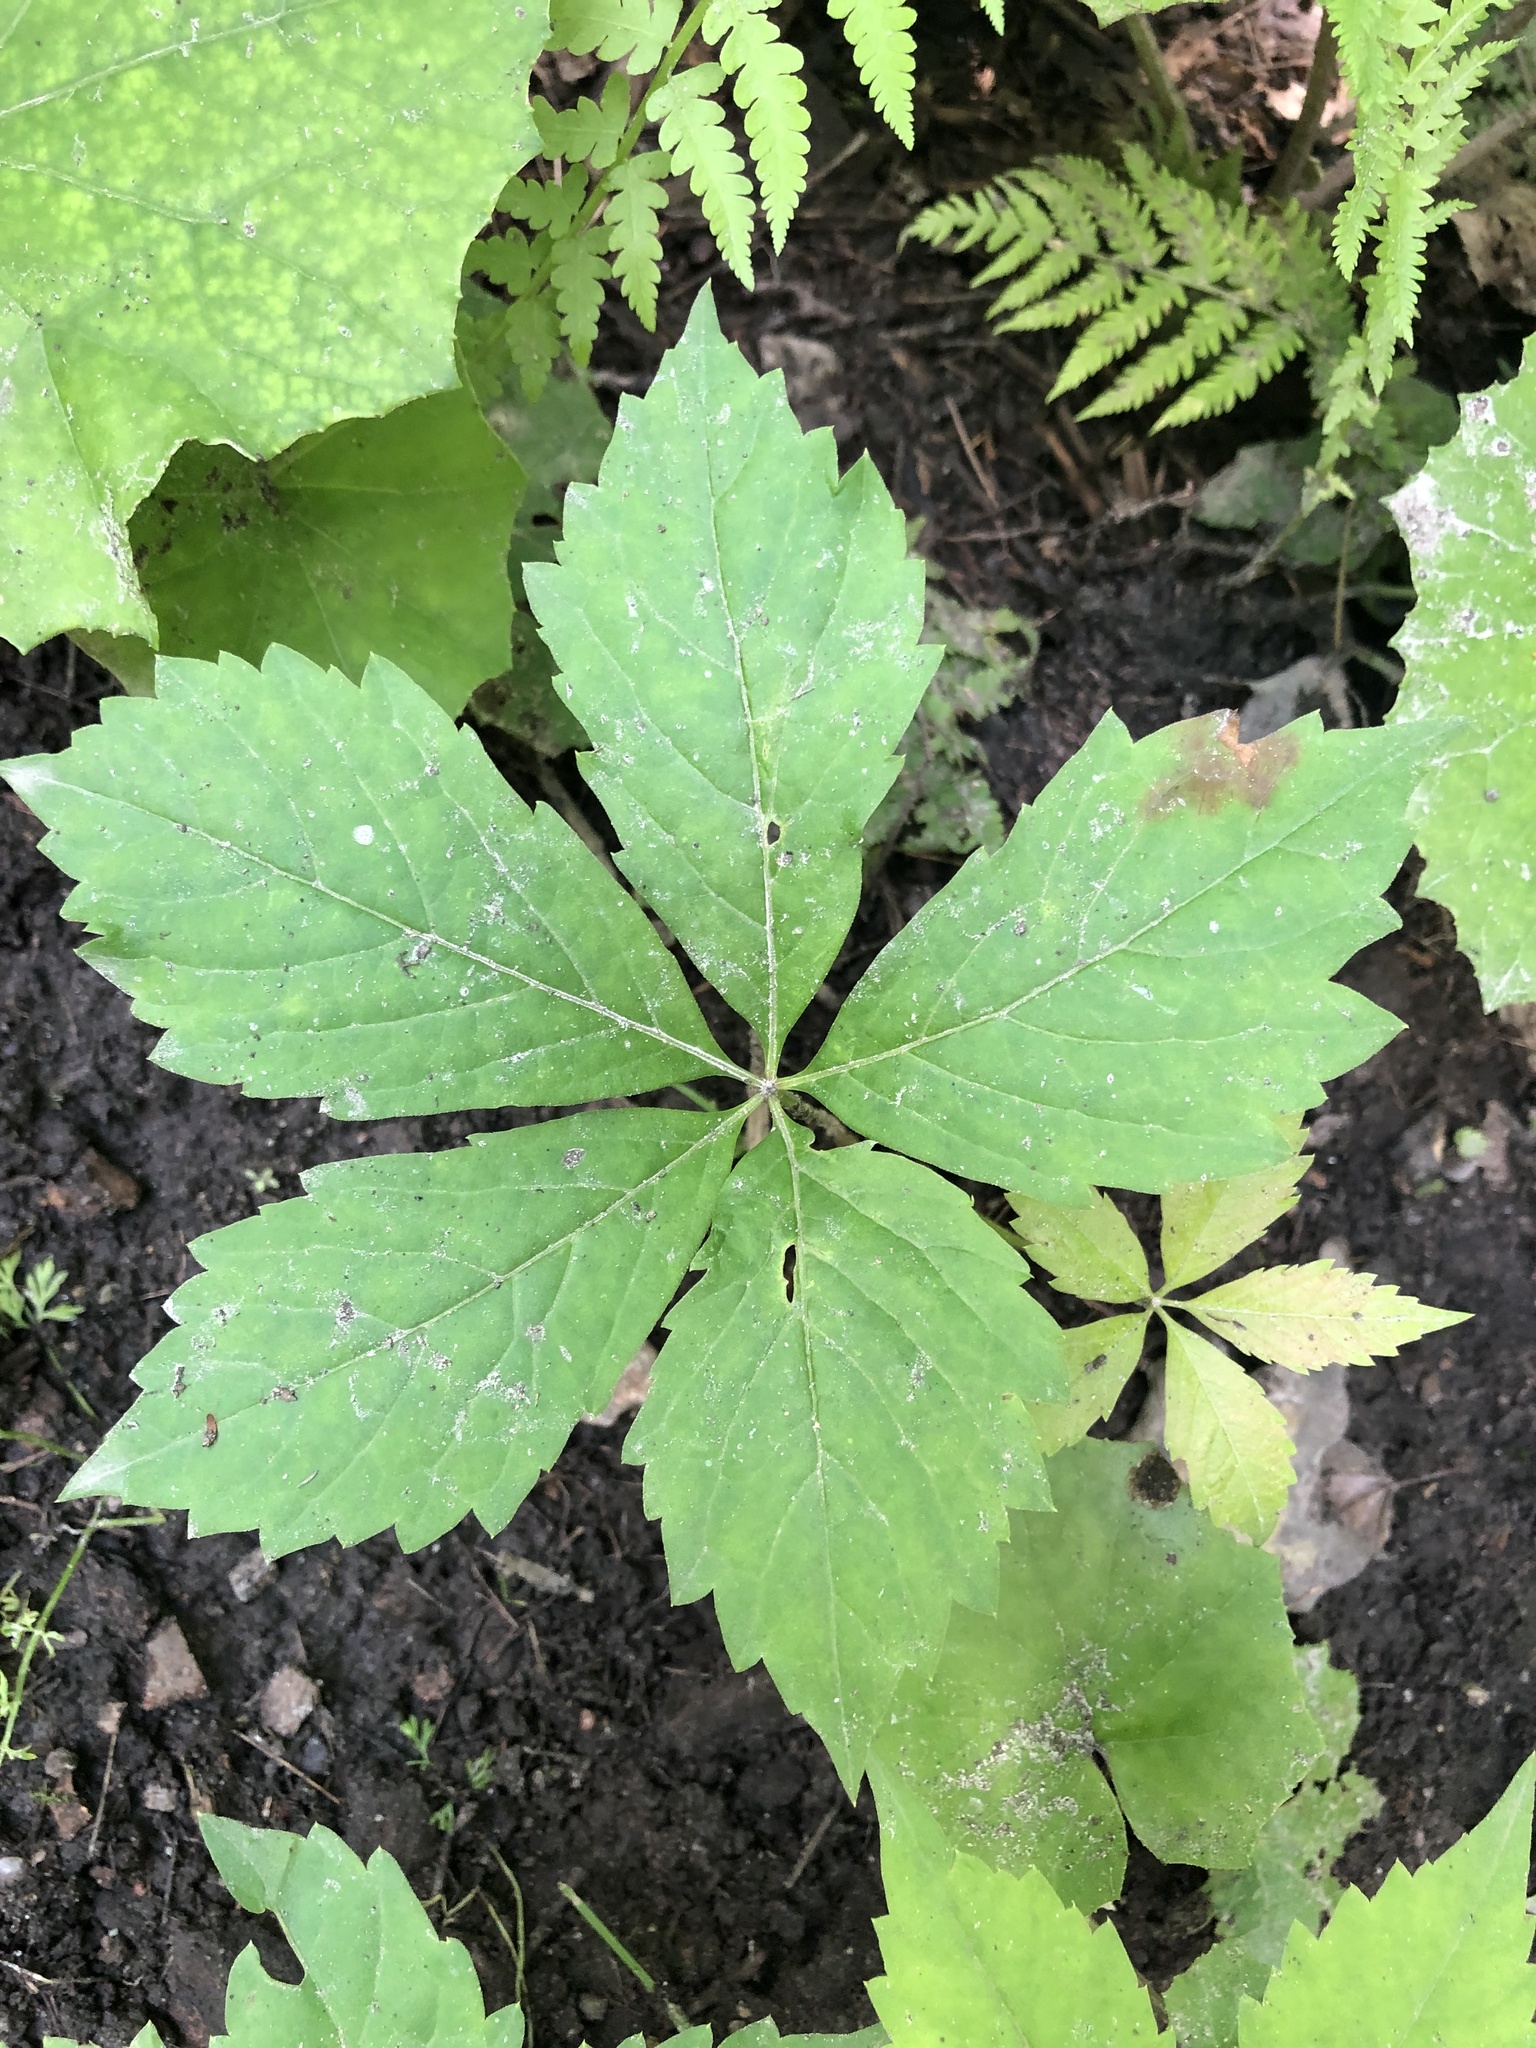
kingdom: Plantae
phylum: Tracheophyta
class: Magnoliopsida
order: Vitales
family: Vitaceae
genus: Parthenocissus
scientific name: Parthenocissus quinquefolia
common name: Virginia-creeper
